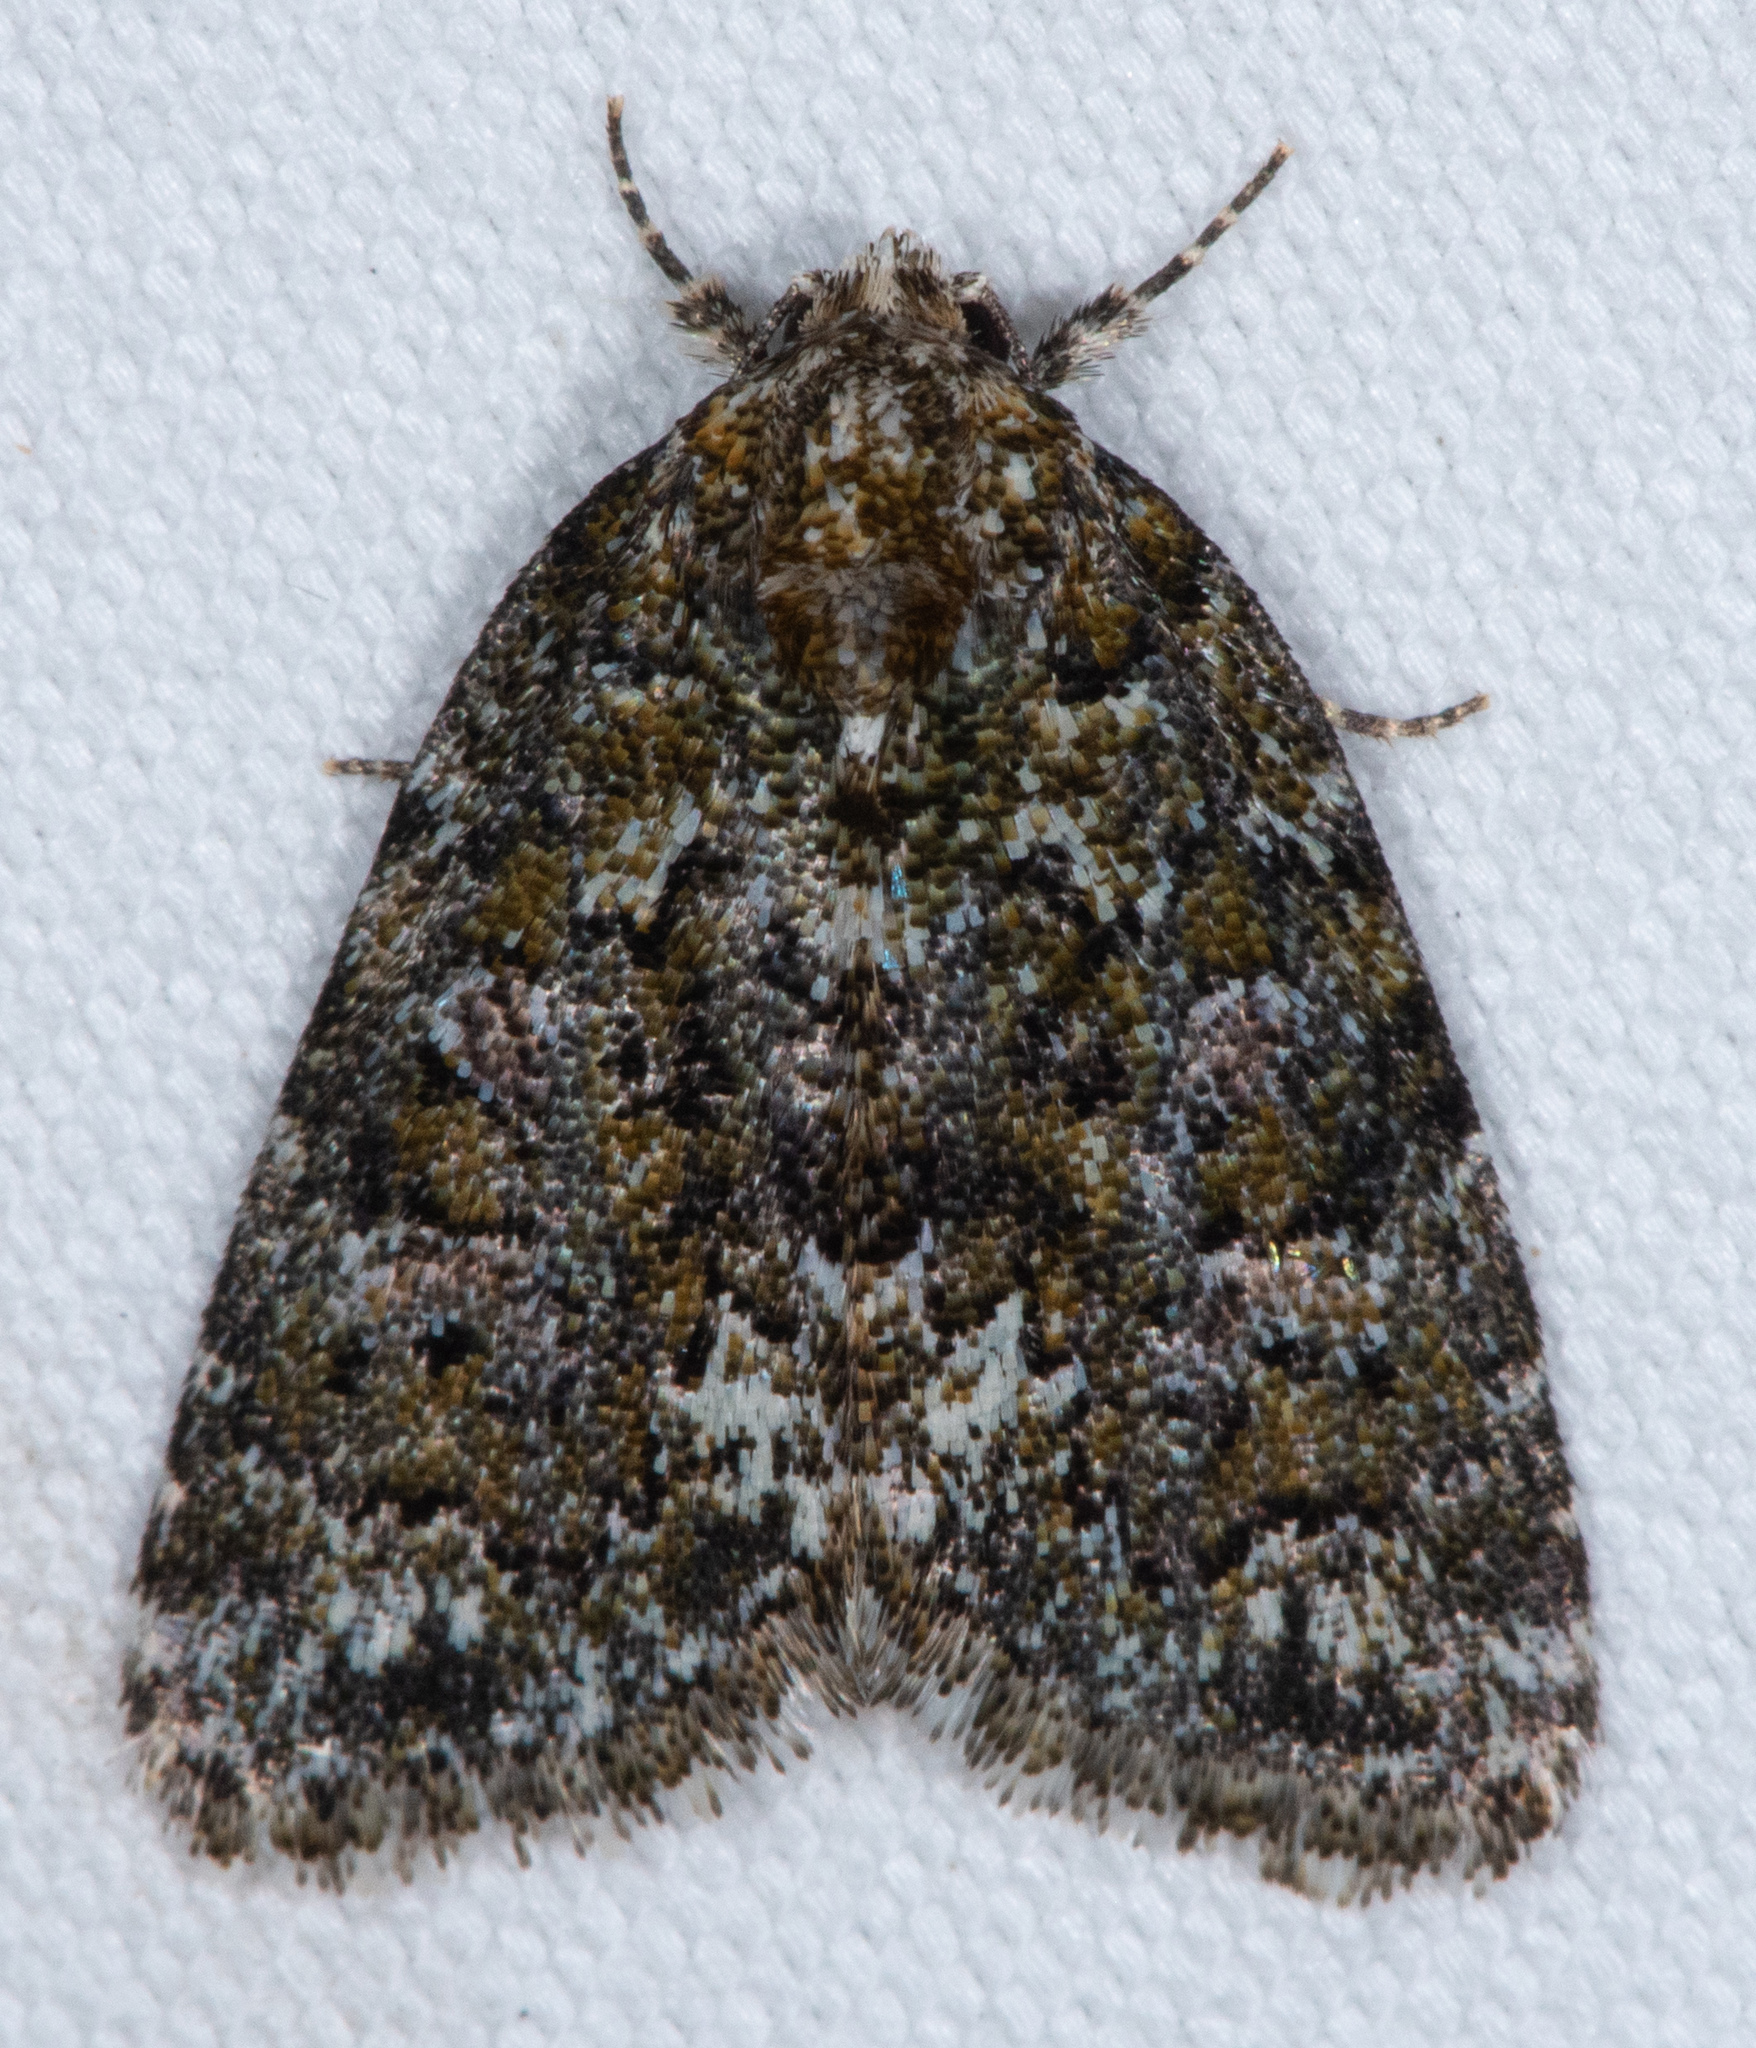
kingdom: Animalia
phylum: Arthropoda
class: Insecta
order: Lepidoptera
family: Noctuidae
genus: Cryphia
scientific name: Cryphia cuerva
